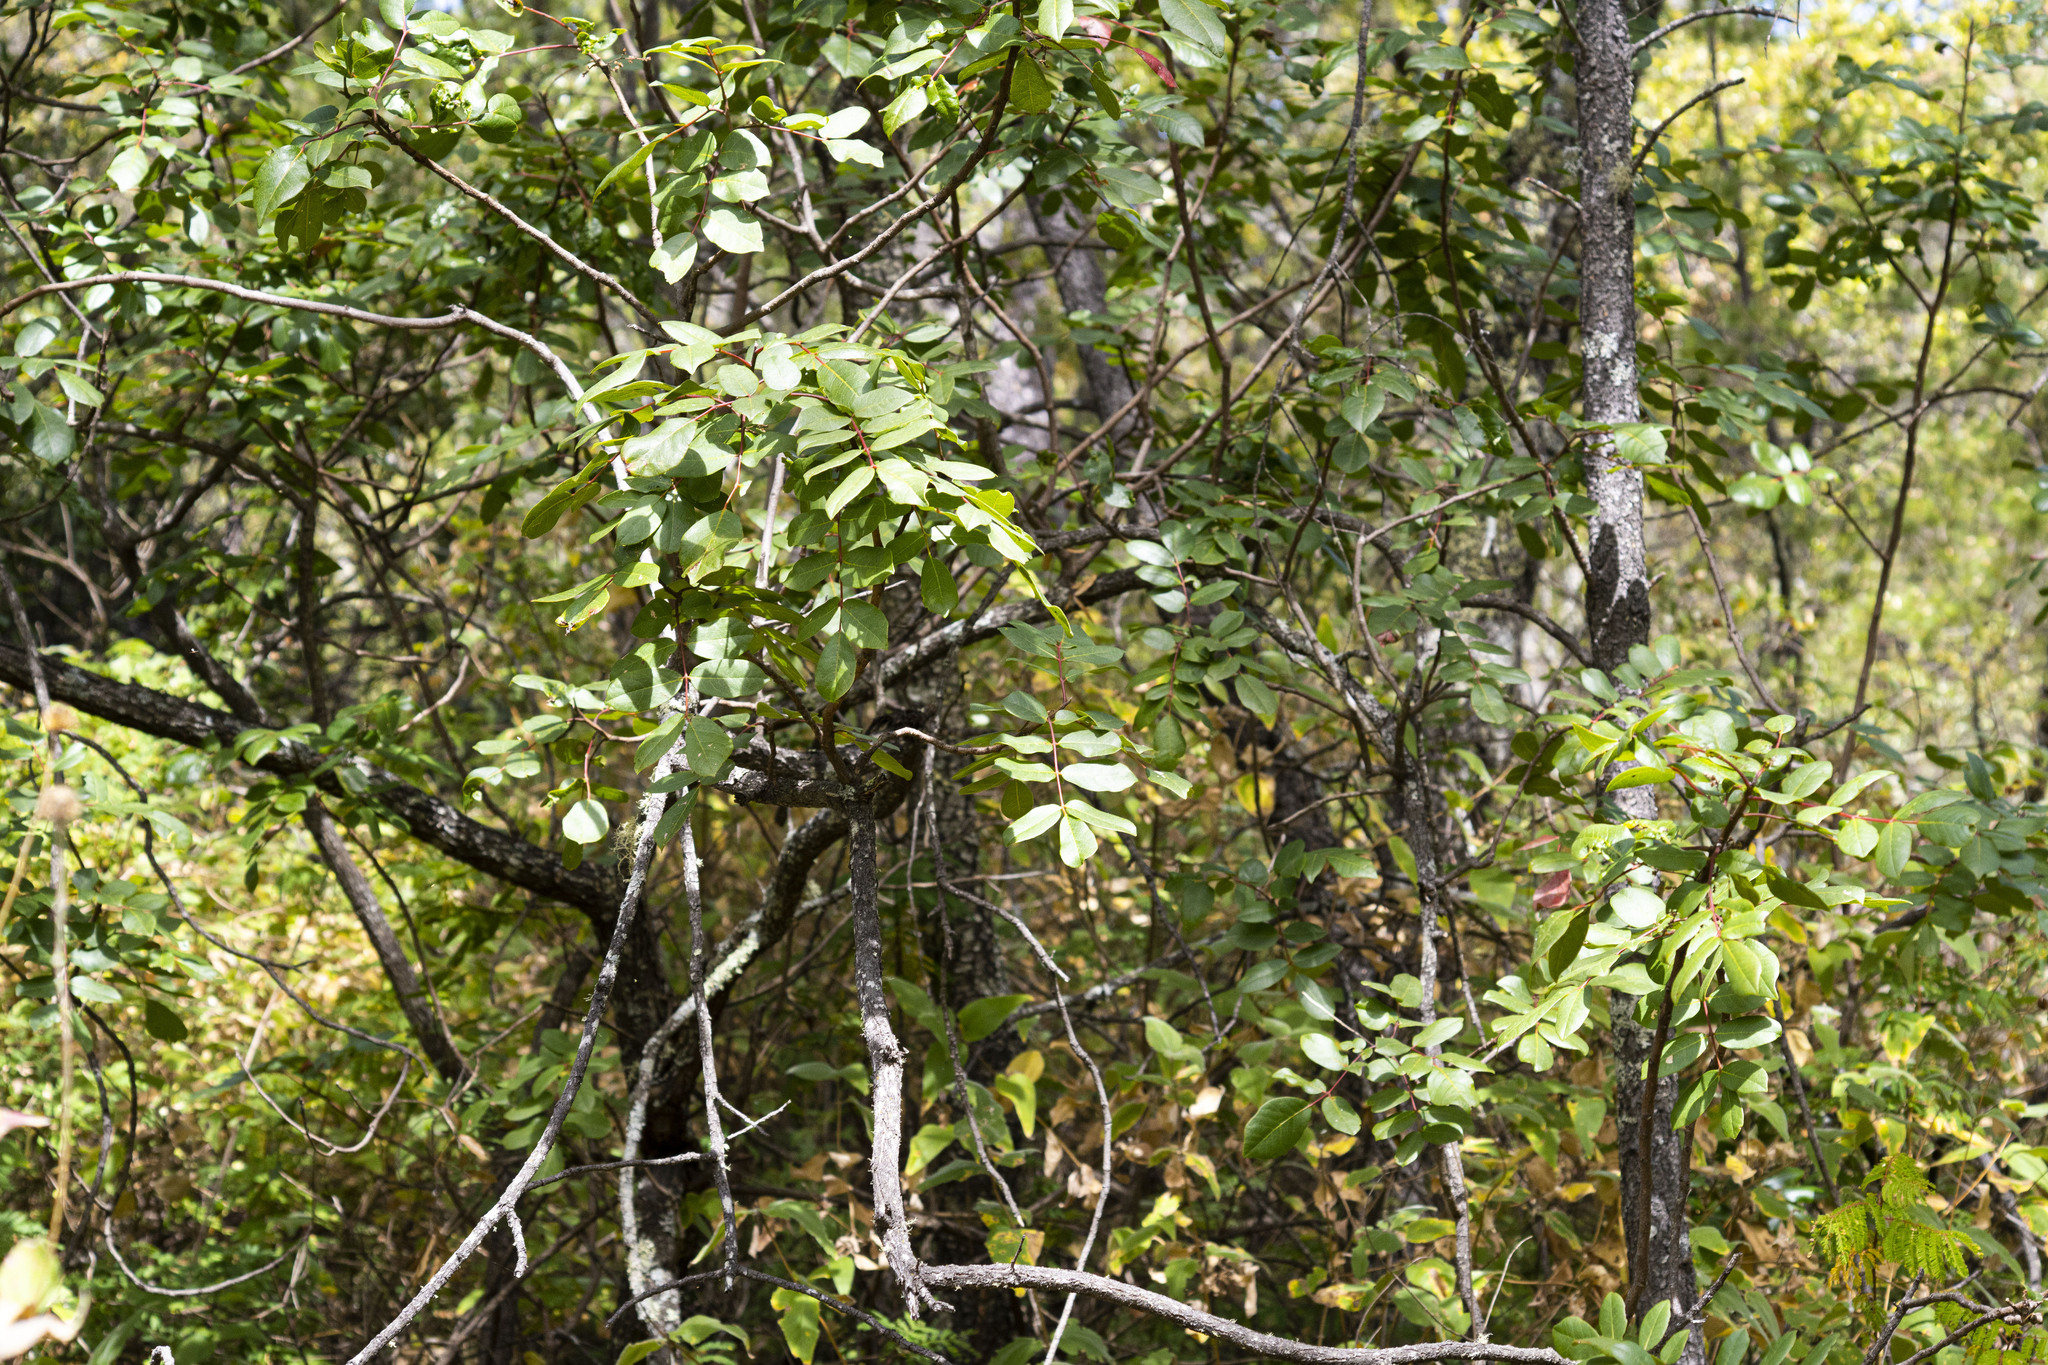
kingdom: Plantae
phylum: Tracheophyta
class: Magnoliopsida
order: Sapindales
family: Anacardiaceae
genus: Rhus
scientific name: Rhus tepetate
